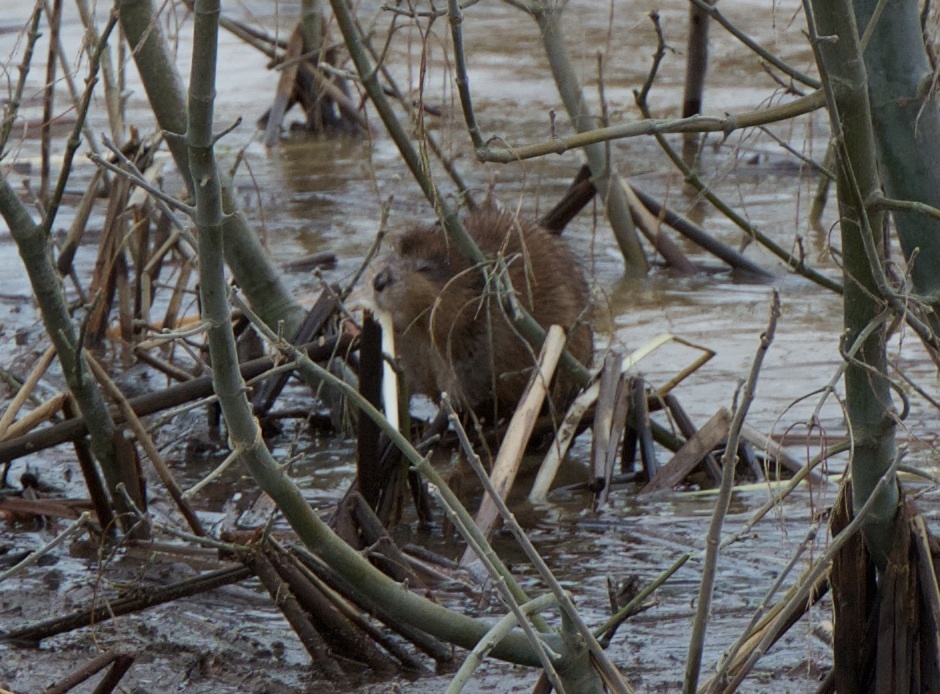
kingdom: Animalia
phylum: Chordata
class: Mammalia
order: Rodentia
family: Cricetidae
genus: Ondatra
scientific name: Ondatra zibethicus
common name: Muskrat
